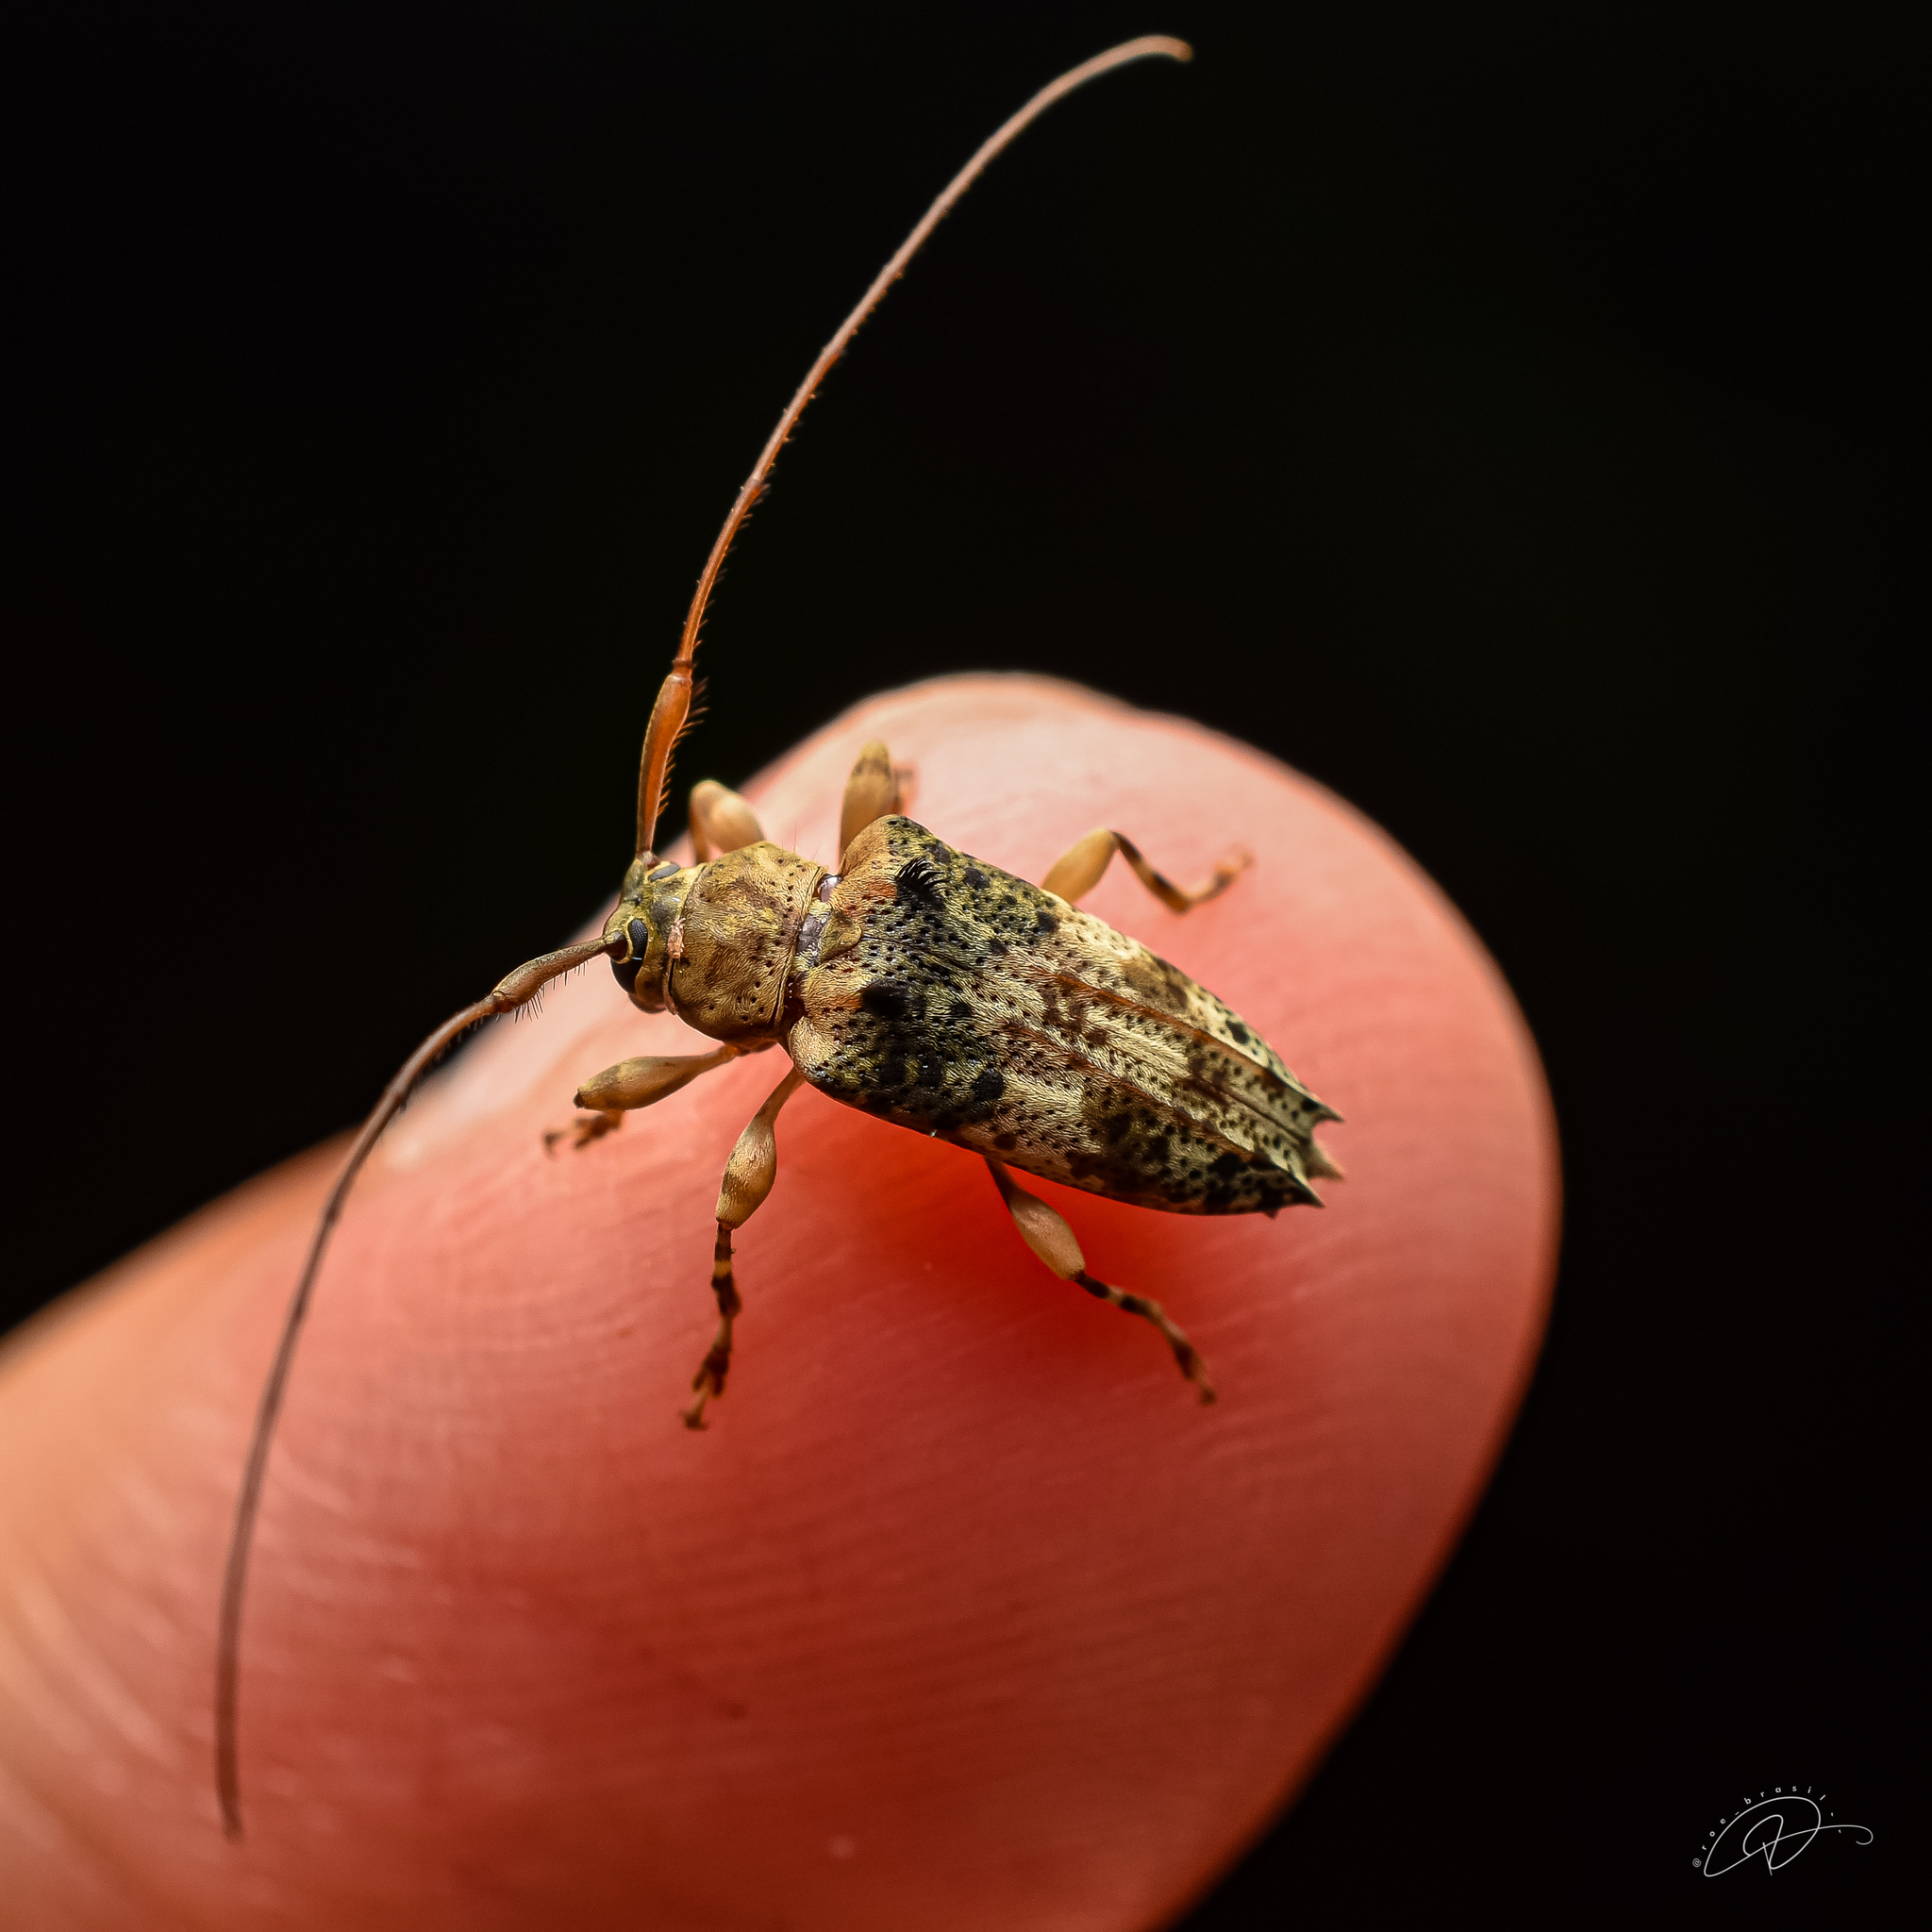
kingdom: Animalia
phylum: Arthropoda
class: Insecta
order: Coleoptera
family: Cerambycidae
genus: Nealcidion
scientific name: Nealcidion bispinum
